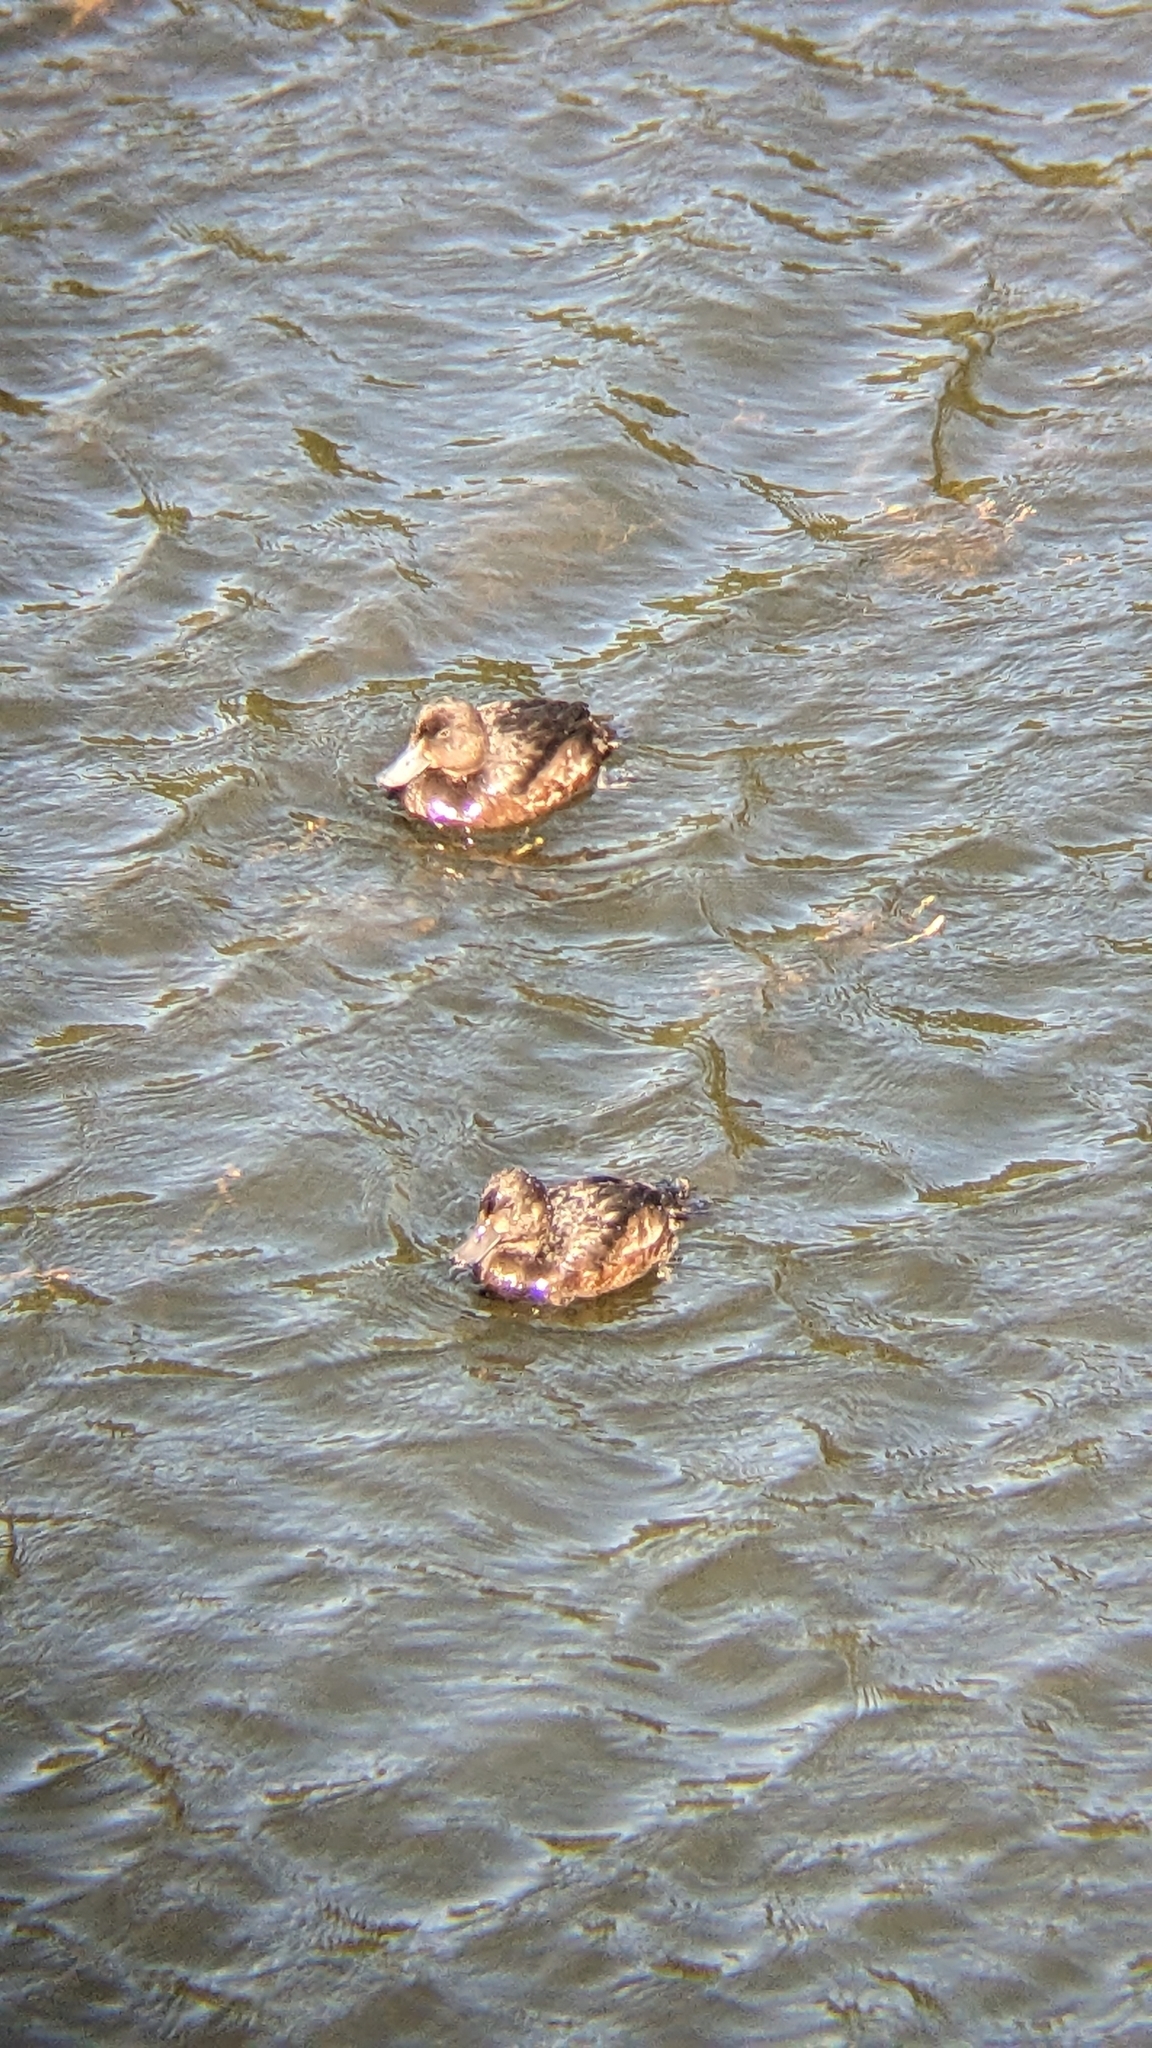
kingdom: Animalia
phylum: Chordata
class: Aves
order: Anseriformes
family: Anatidae
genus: Aythya
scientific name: Aythya novaeseelandiae
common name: New zealand scaup
